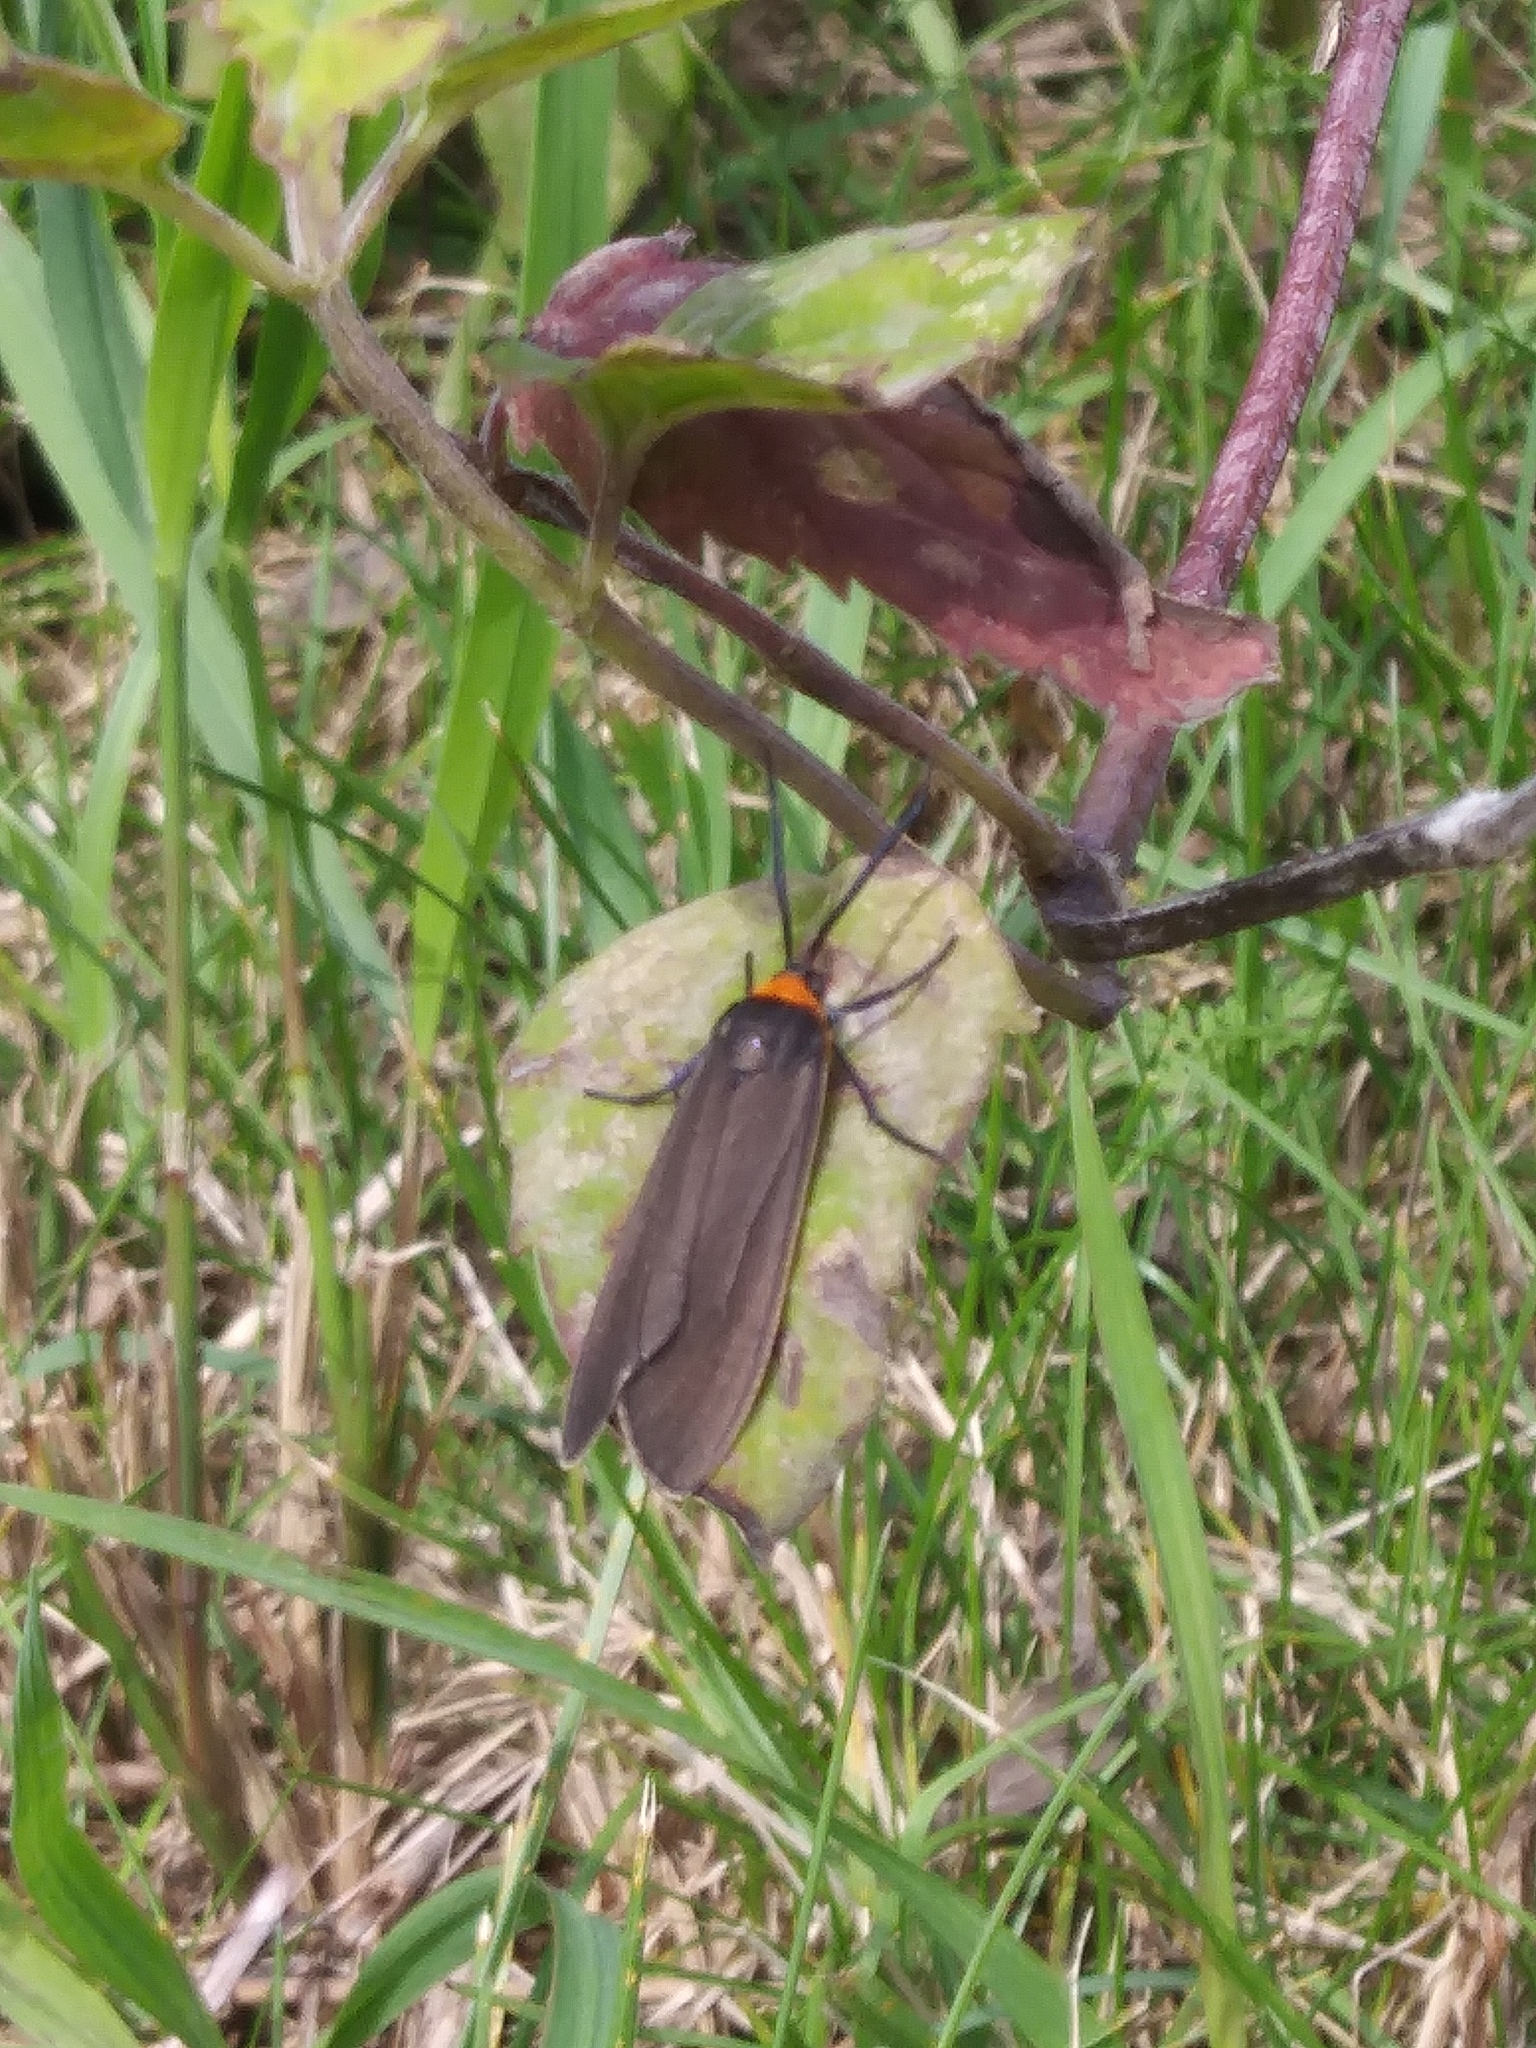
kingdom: Animalia
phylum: Arthropoda
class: Insecta
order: Lepidoptera
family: Erebidae
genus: Cisseps
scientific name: Cisseps fulvicollis
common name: Yellow-collared scape moth
